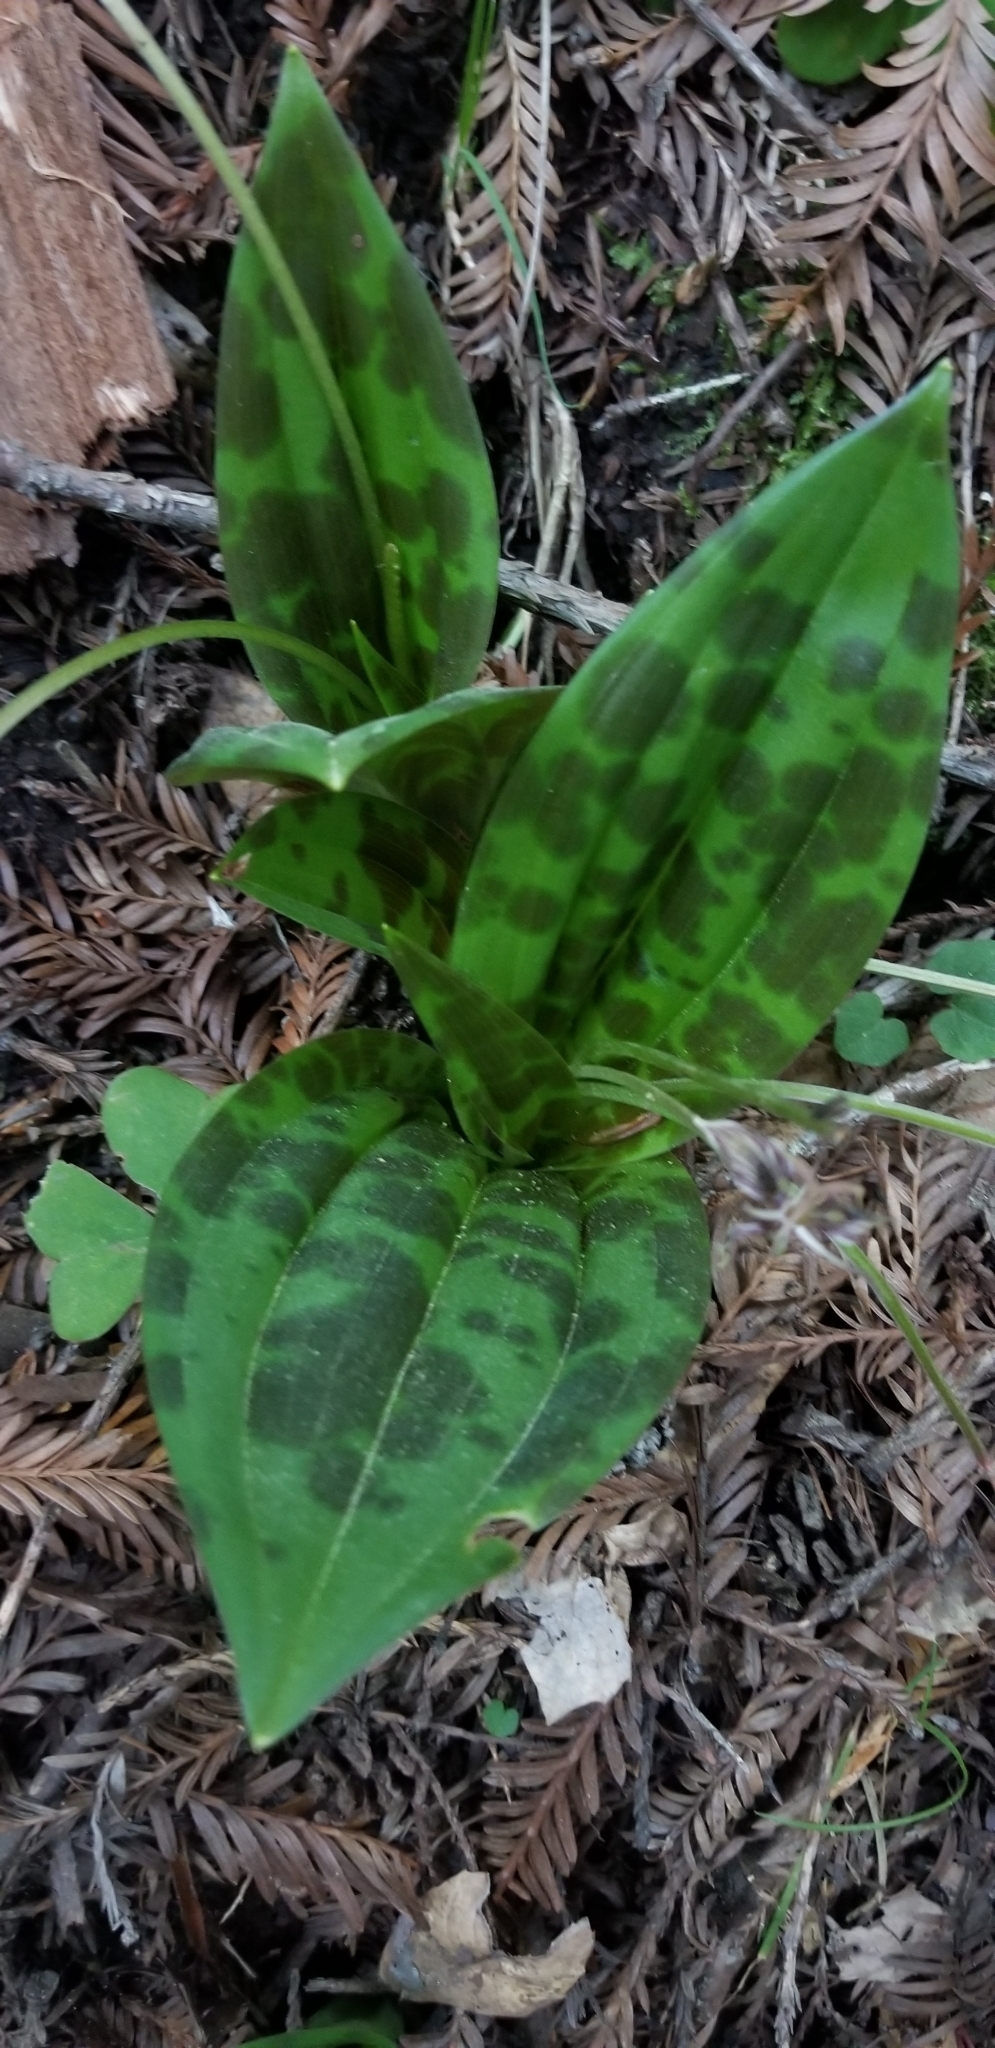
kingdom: Plantae
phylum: Tracheophyta
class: Liliopsida
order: Liliales
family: Liliaceae
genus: Scoliopus
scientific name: Scoliopus bigelovii
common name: Foetid adder's-tongue
